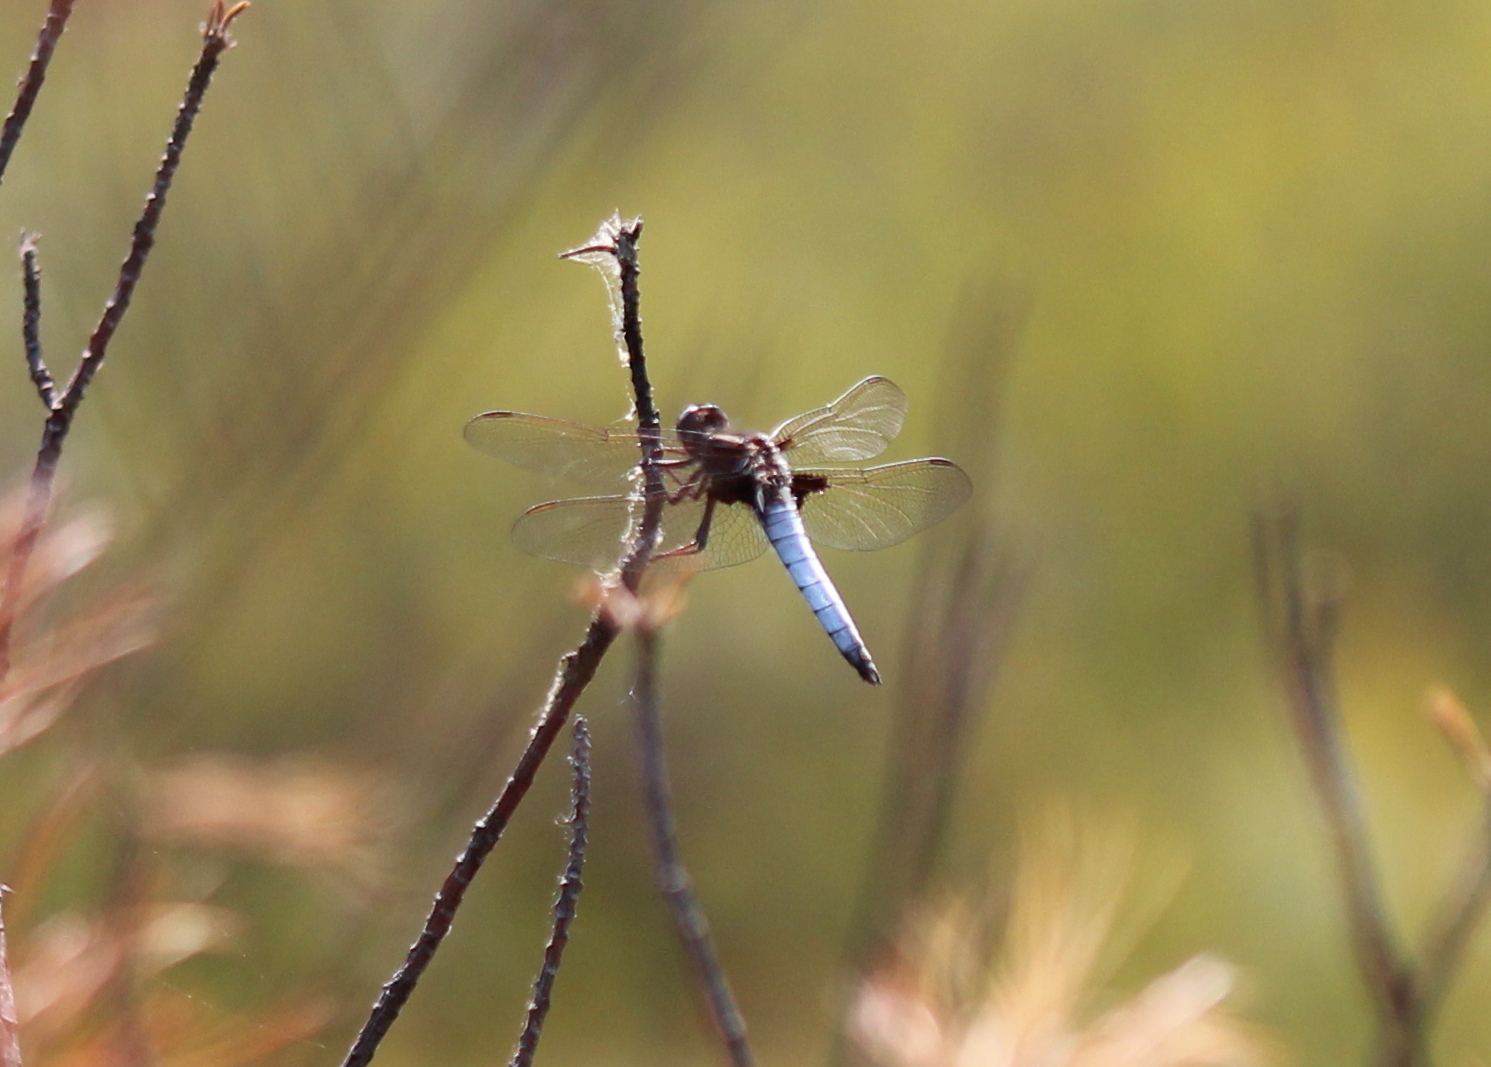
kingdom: Animalia
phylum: Arthropoda
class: Insecta
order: Odonata
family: Libellulidae
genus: Ladona
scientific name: Ladona exusta
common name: Libellule embrasée
